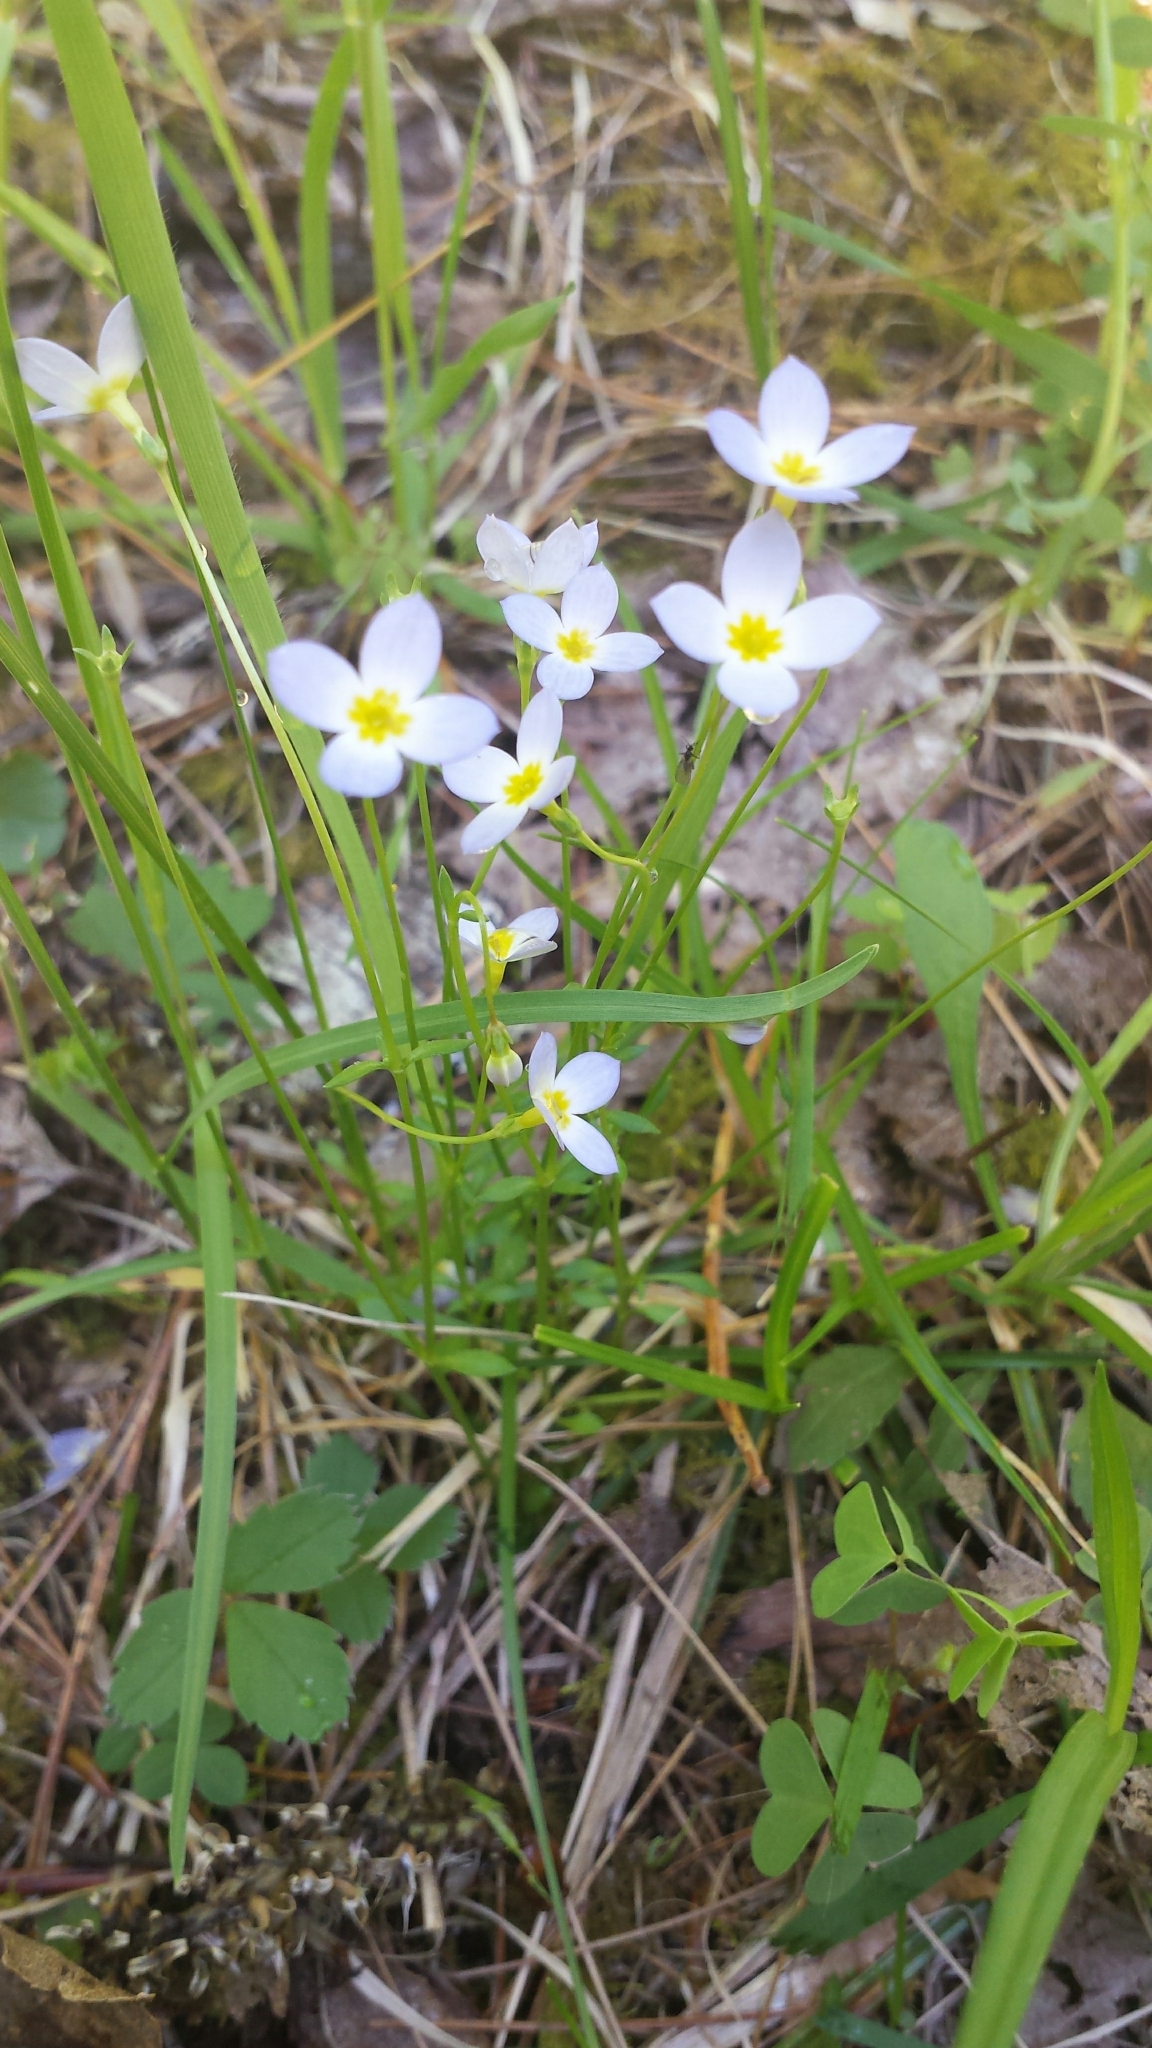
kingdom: Plantae
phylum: Tracheophyta
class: Magnoliopsida
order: Gentianales
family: Rubiaceae
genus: Houstonia
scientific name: Houstonia caerulea
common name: Bluets
